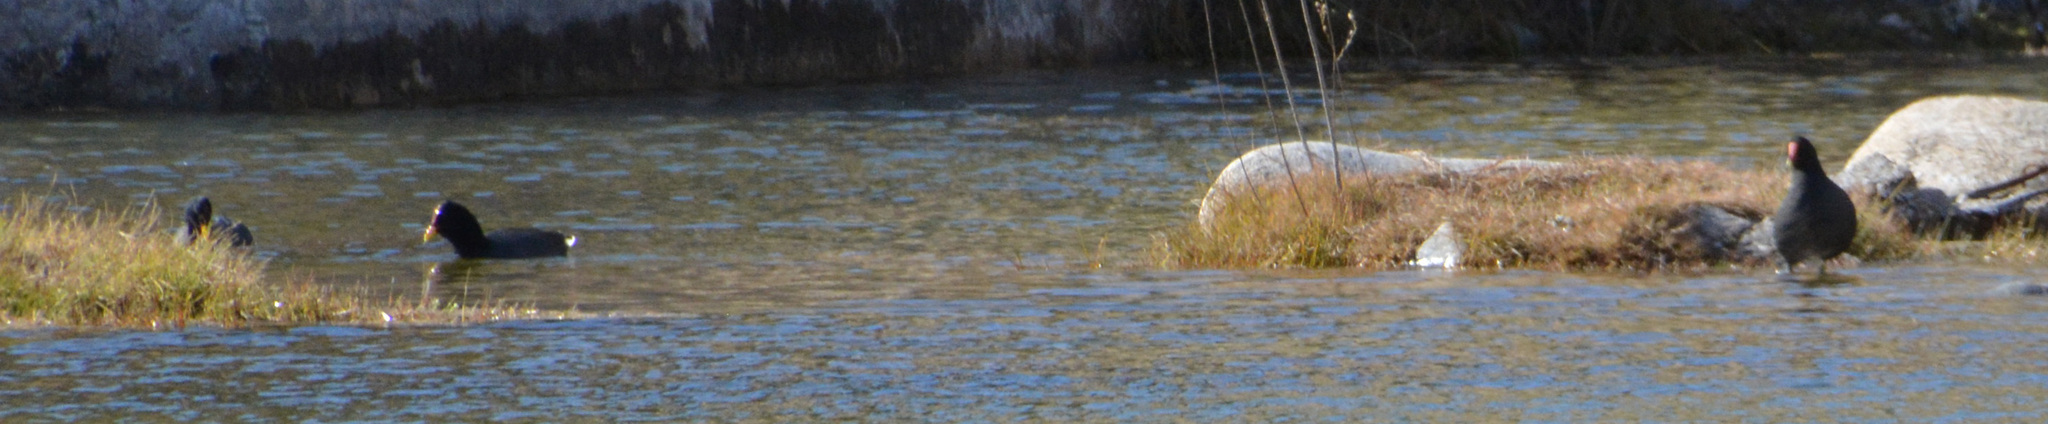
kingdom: Animalia
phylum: Chordata
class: Aves
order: Gruiformes
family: Rallidae
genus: Gallinula
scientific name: Gallinula chloropus
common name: Common moorhen
